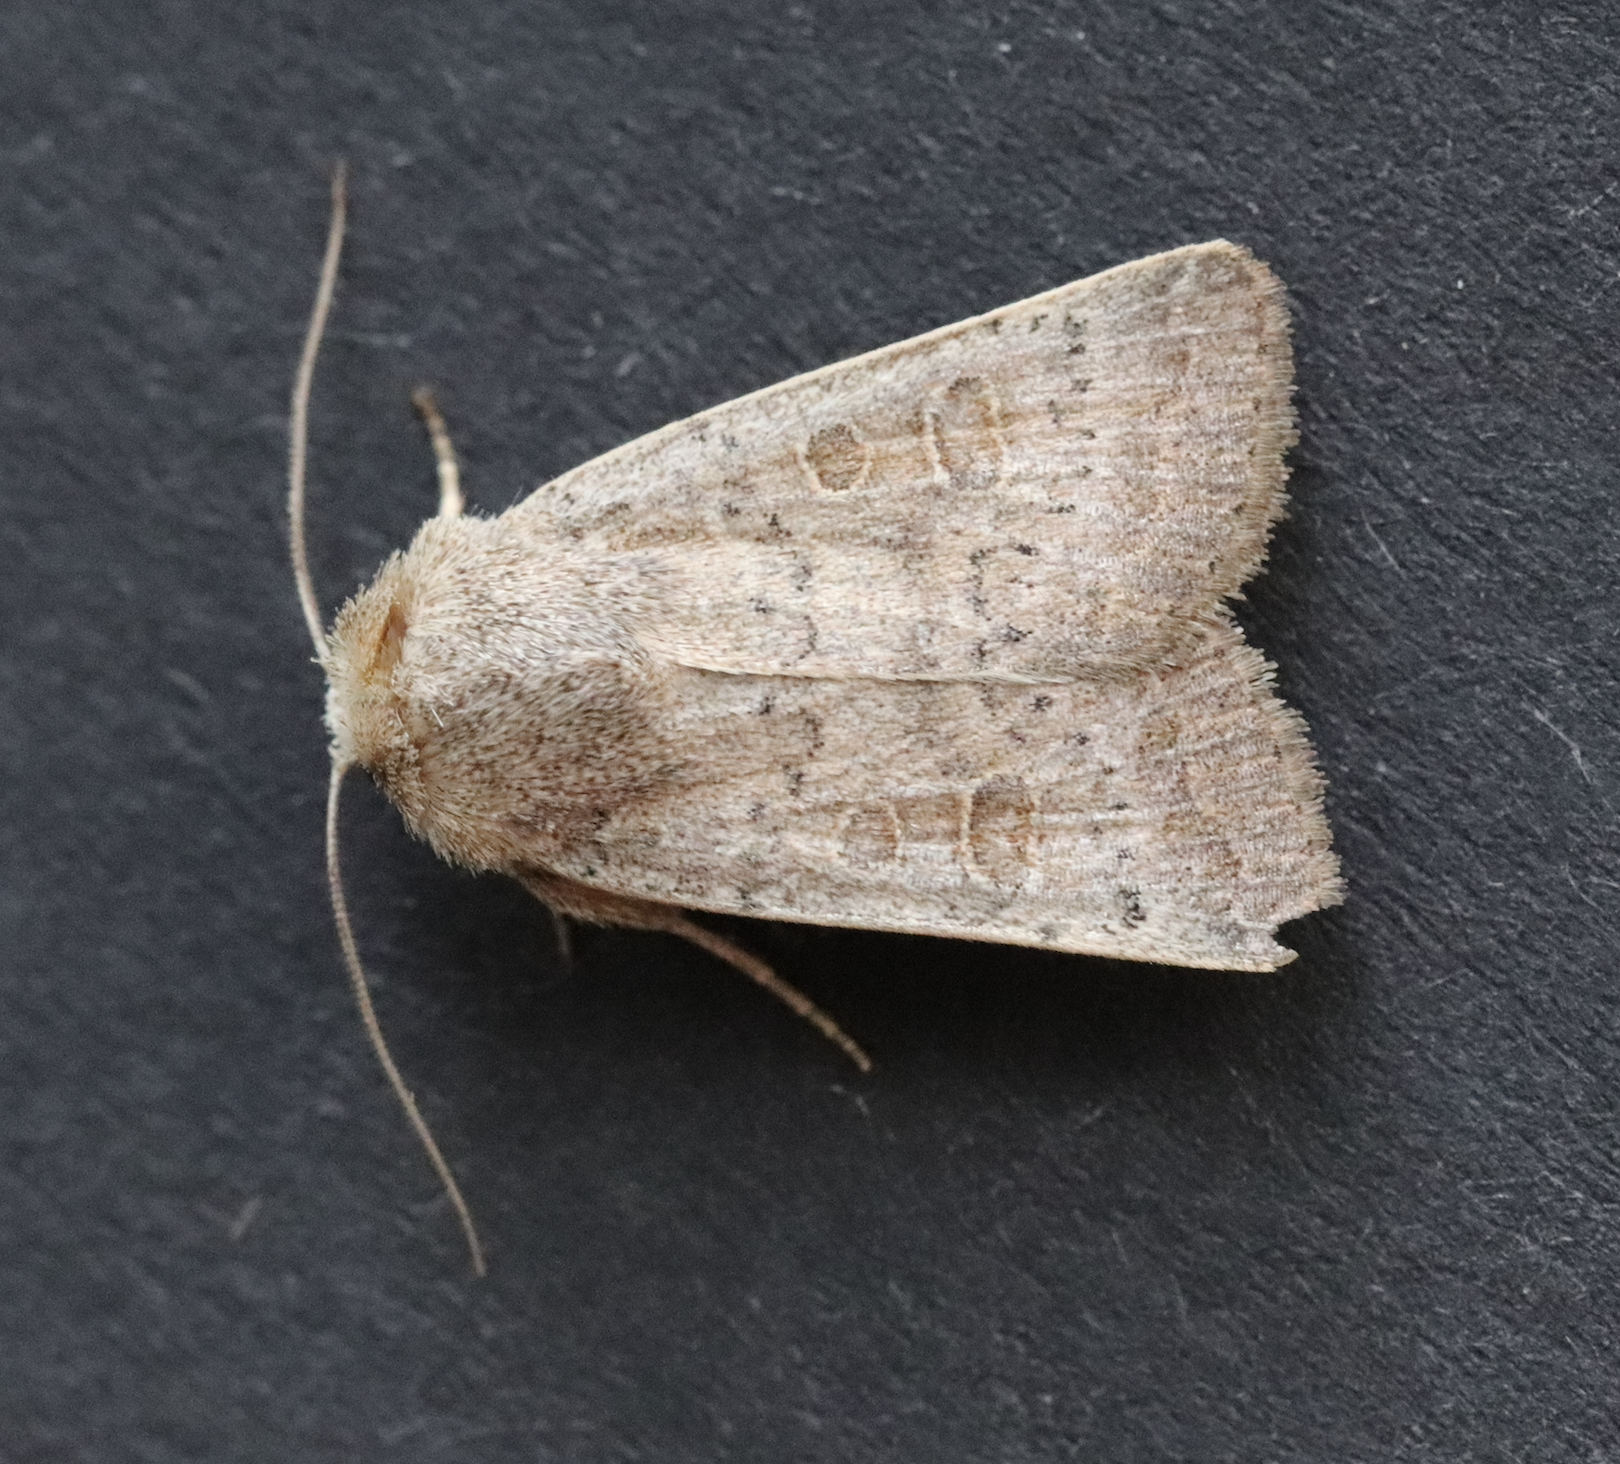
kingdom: Animalia
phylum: Arthropoda
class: Insecta
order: Lepidoptera
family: Noctuidae
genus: Hoplodrina
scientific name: Hoplodrina ambigua
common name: Vine's rustic
